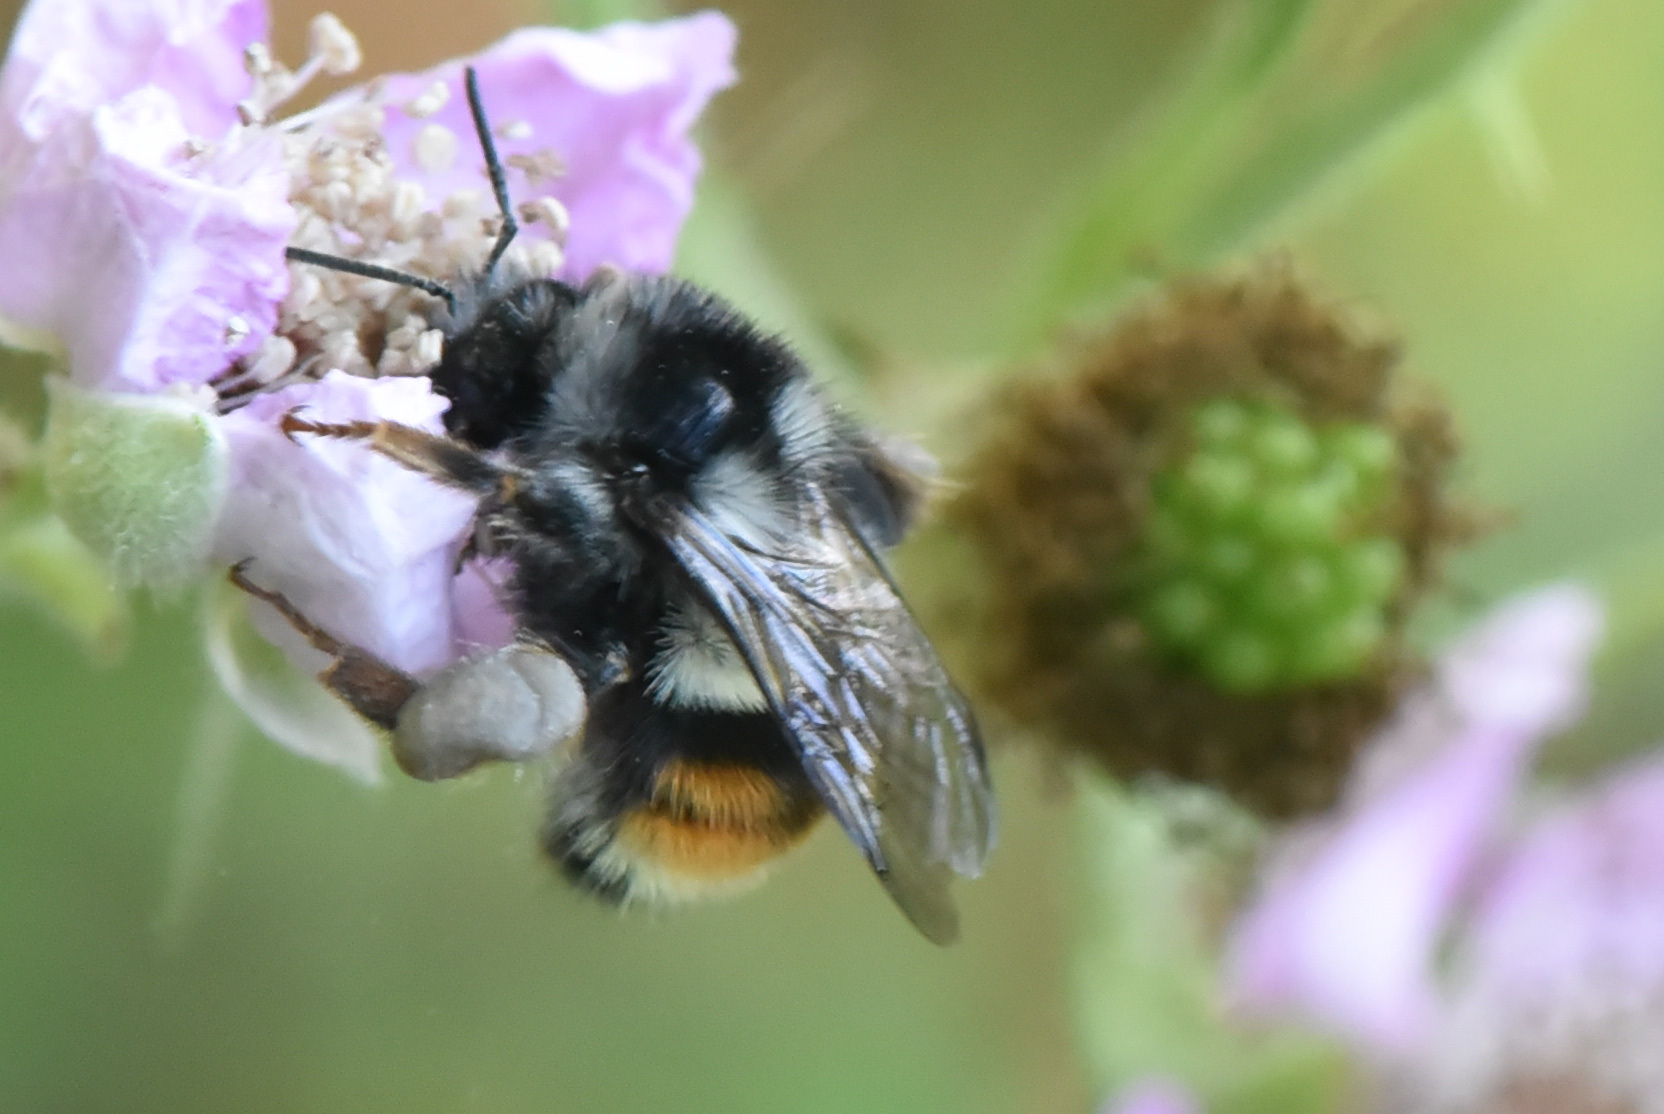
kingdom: Animalia
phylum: Arthropoda
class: Insecta
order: Hymenoptera
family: Apidae
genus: Bombus
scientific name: Bombus vancouverensis
